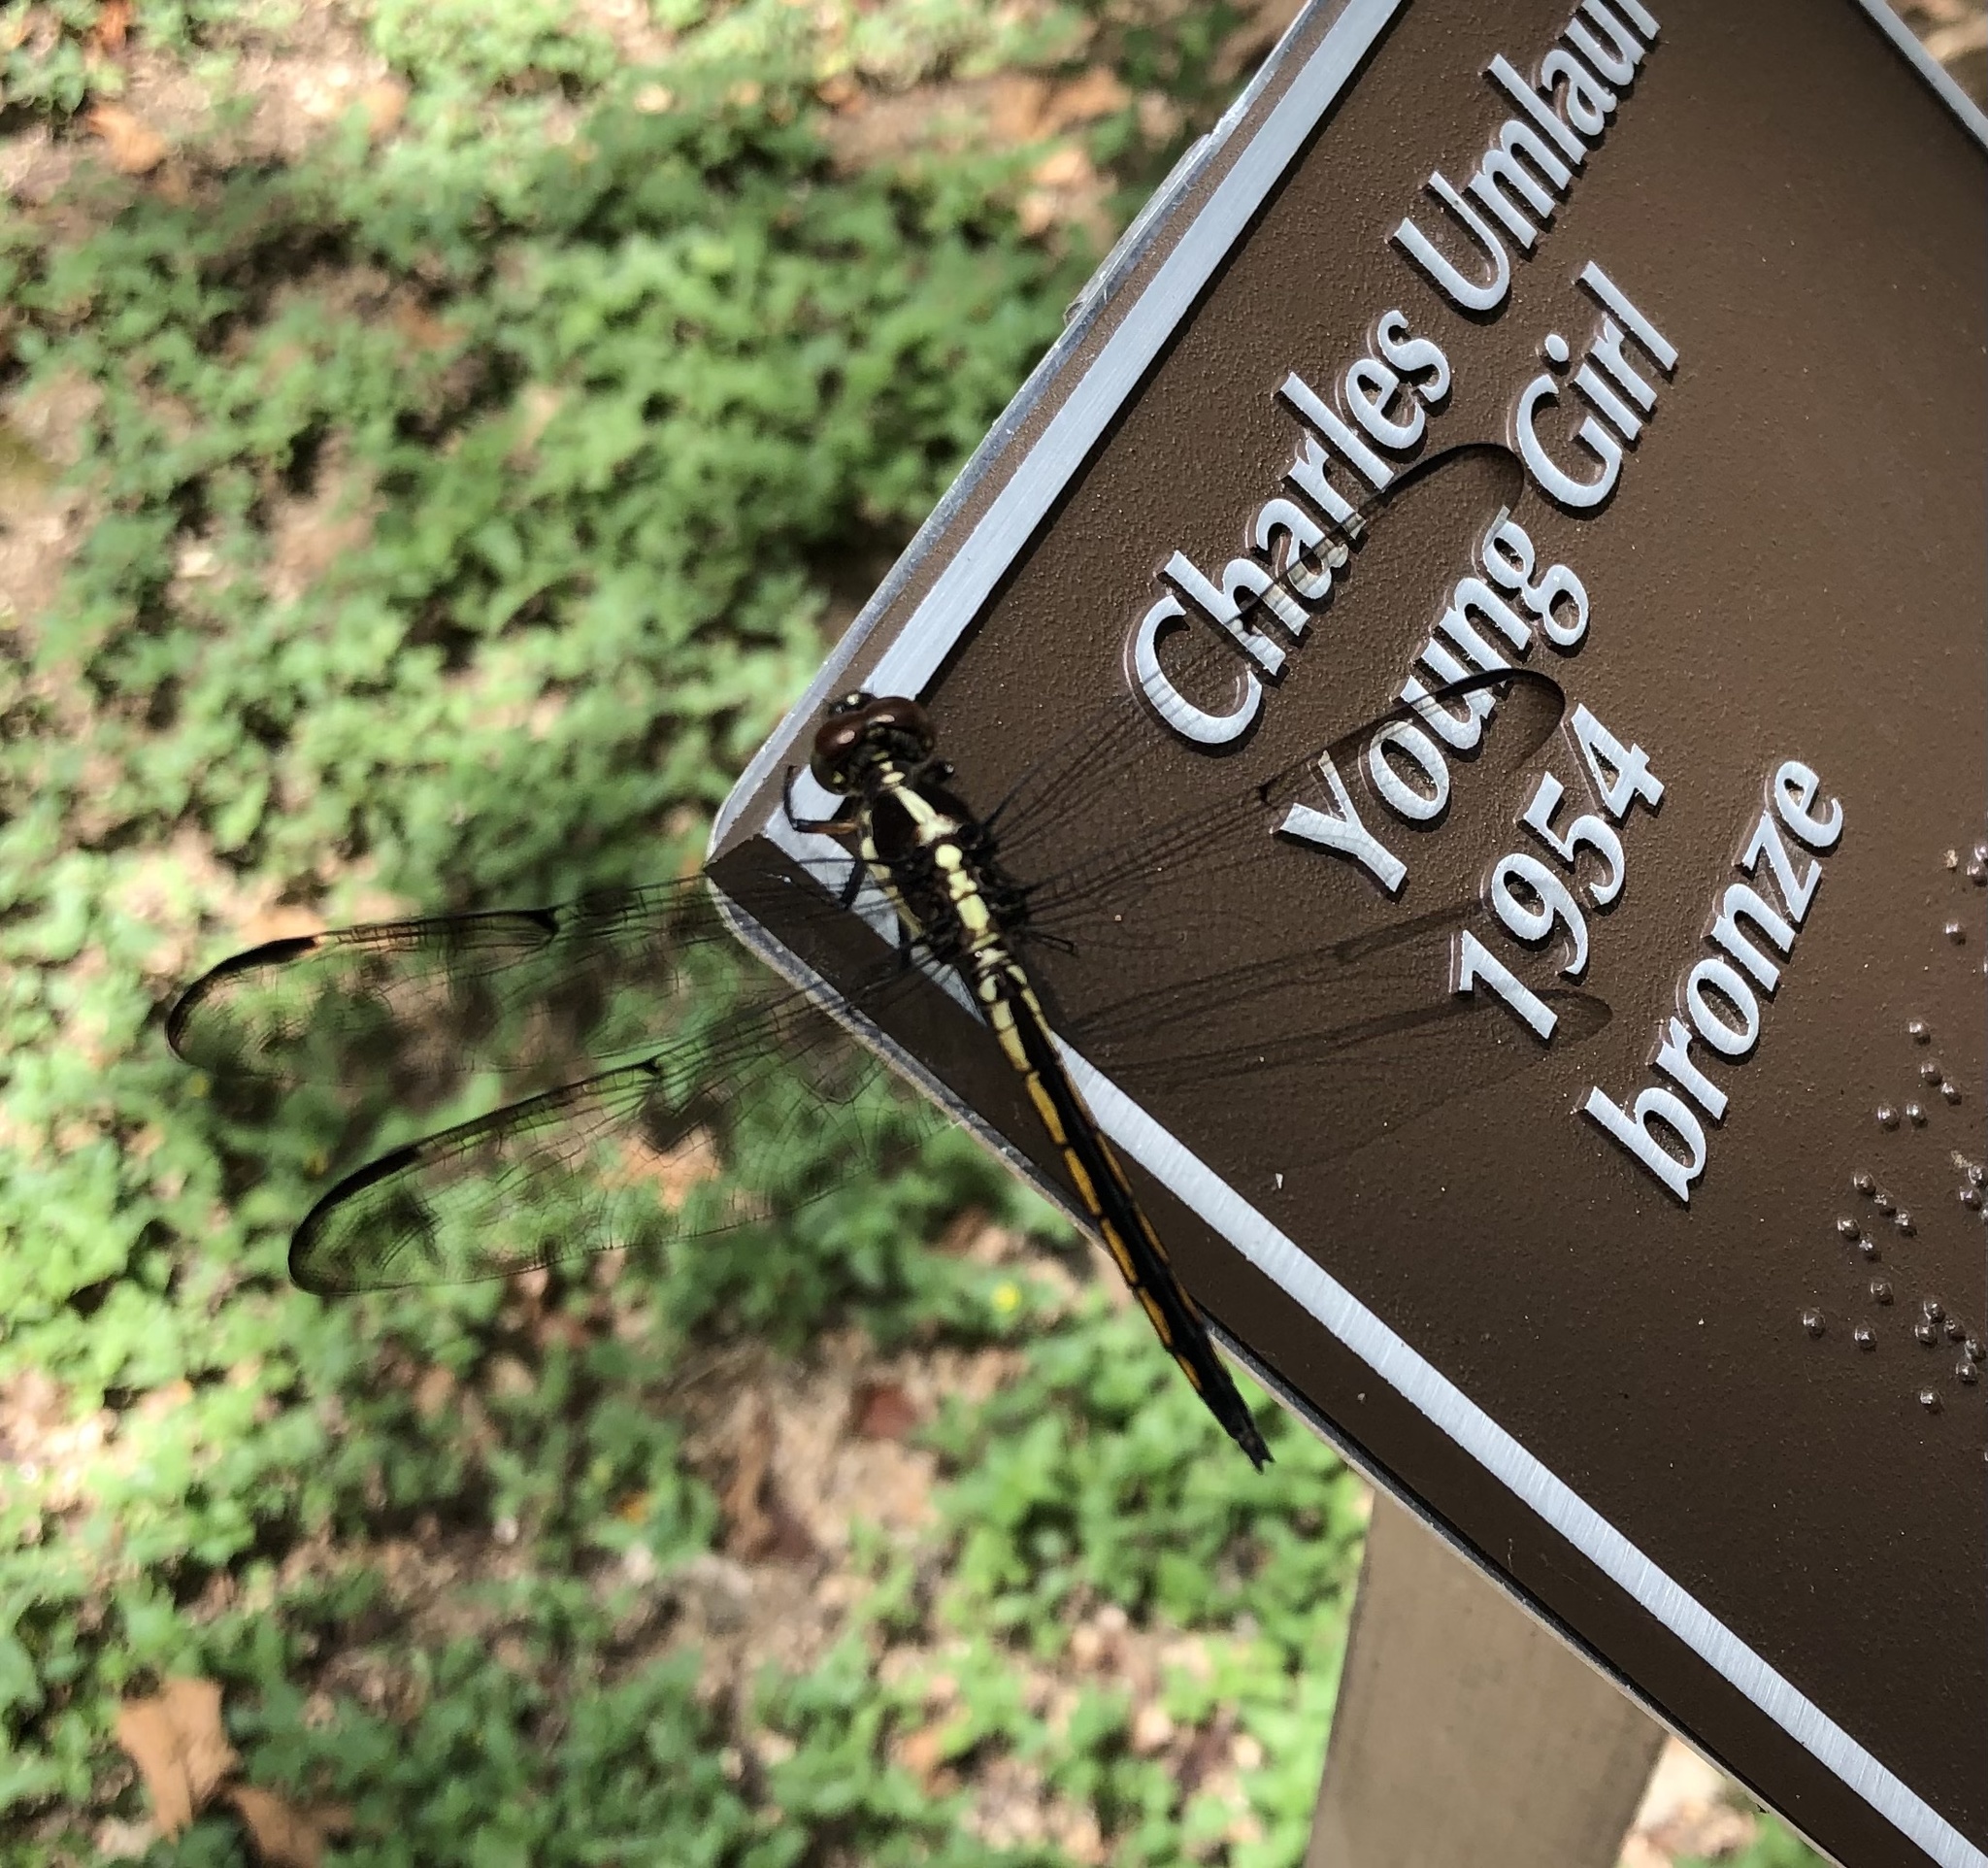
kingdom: Animalia
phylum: Arthropoda
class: Insecta
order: Odonata
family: Libellulidae
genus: Libellula
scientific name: Libellula incesta
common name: Slaty skimmer
